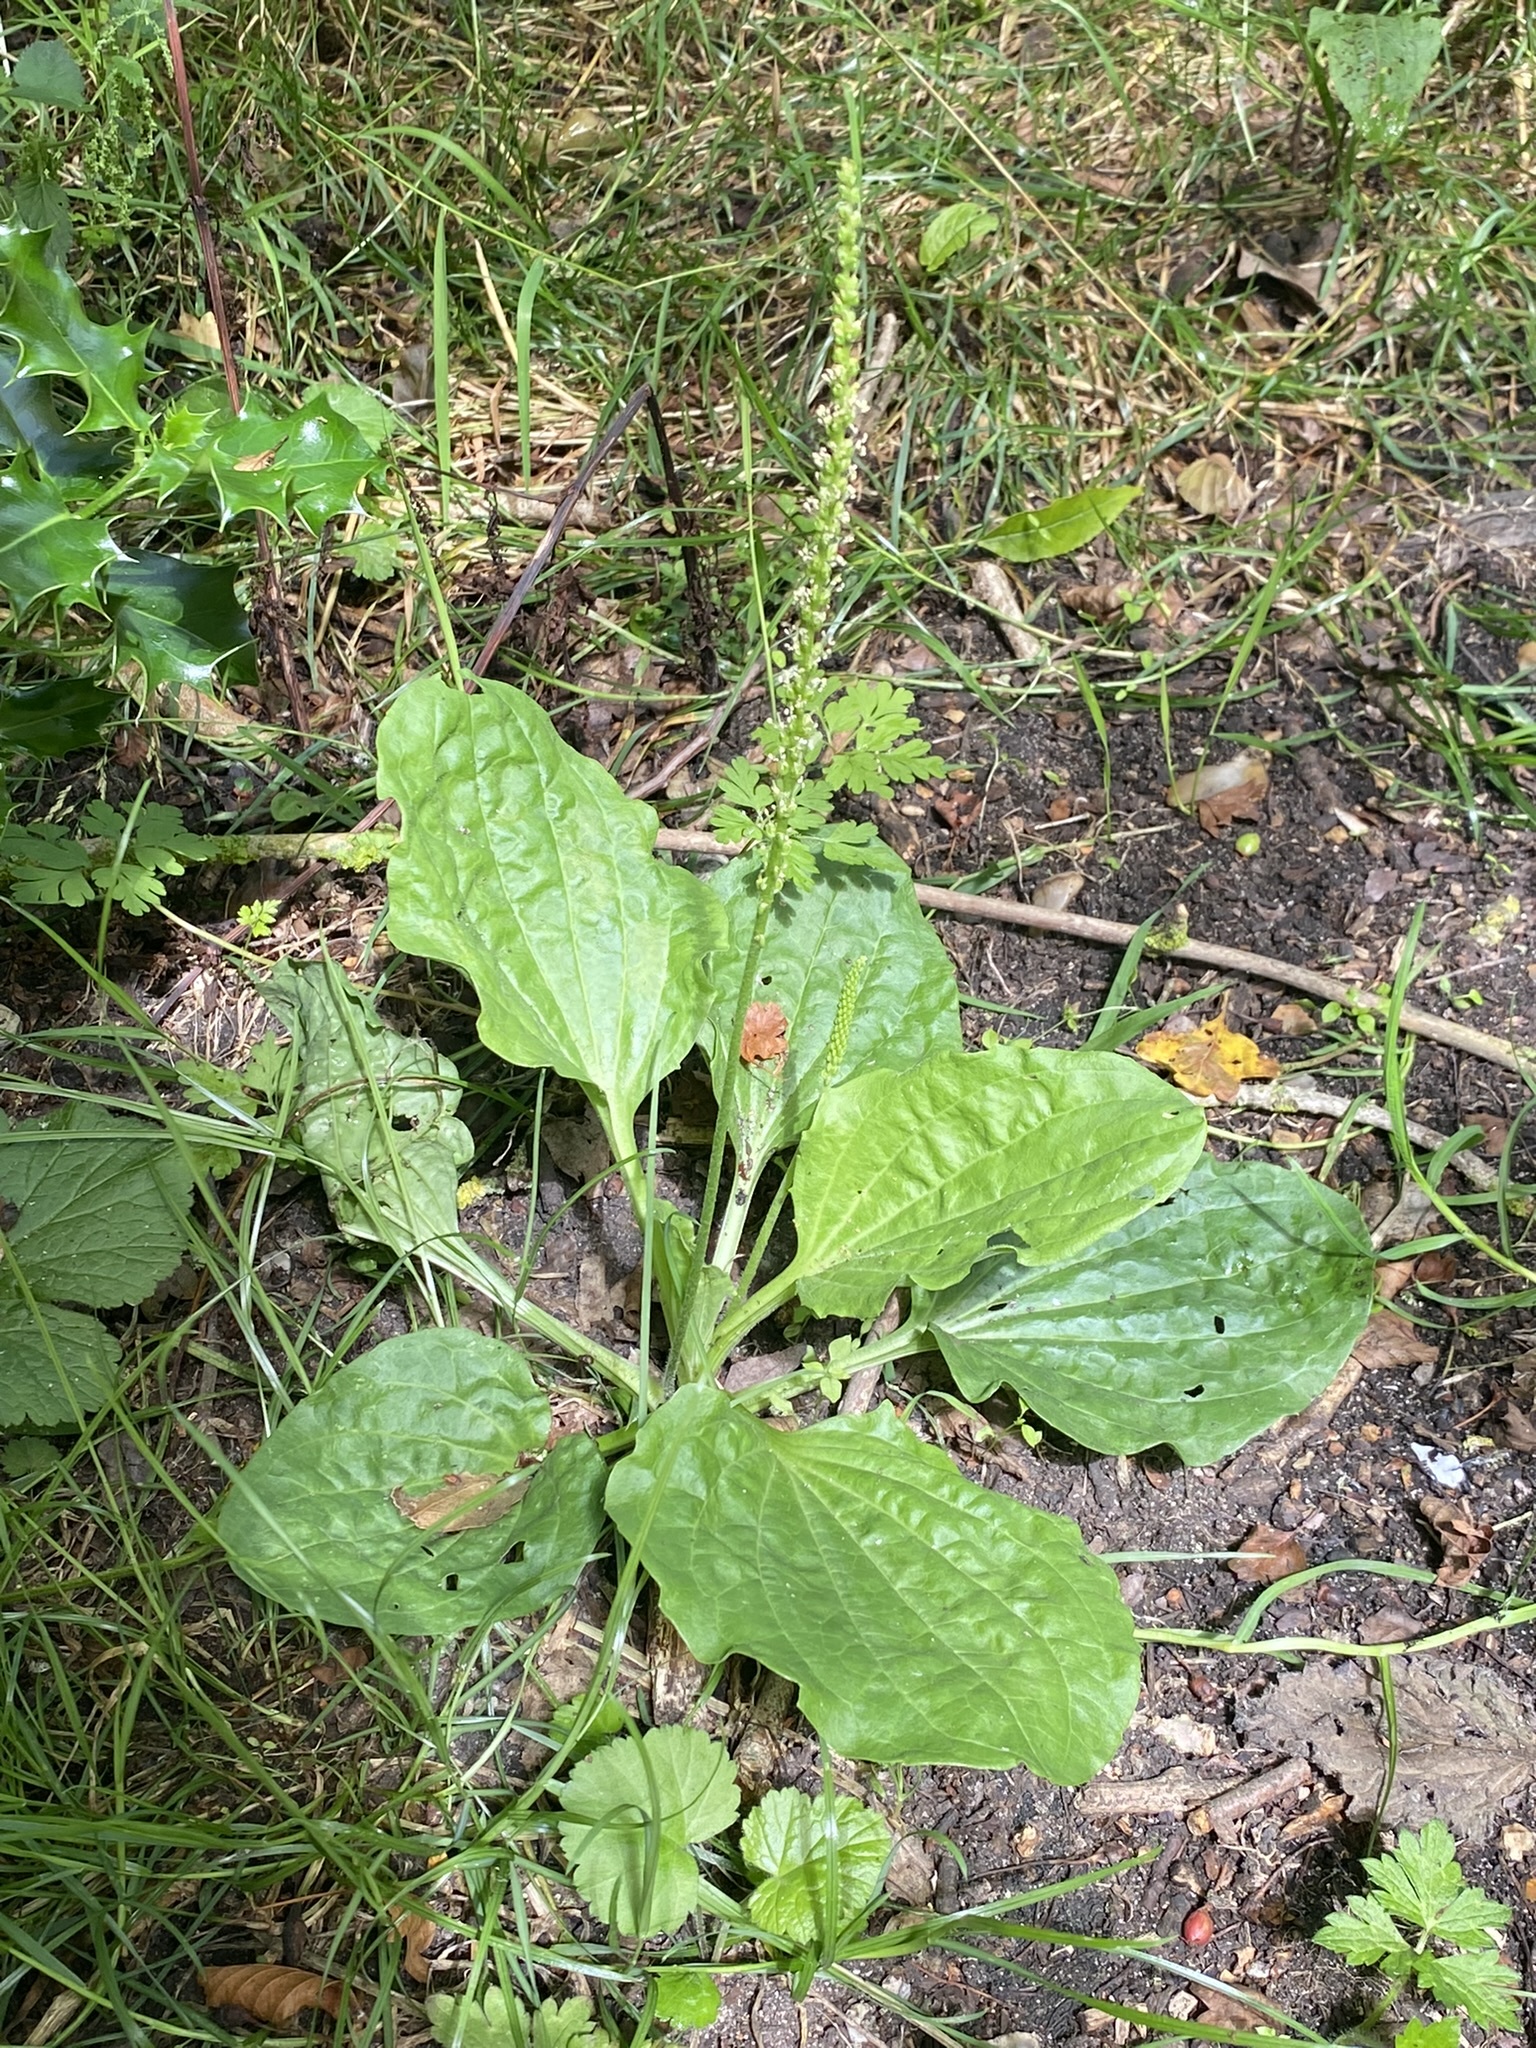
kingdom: Plantae
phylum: Tracheophyta
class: Magnoliopsida
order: Lamiales
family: Plantaginaceae
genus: Plantago
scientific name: Plantago major
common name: Common plantain
